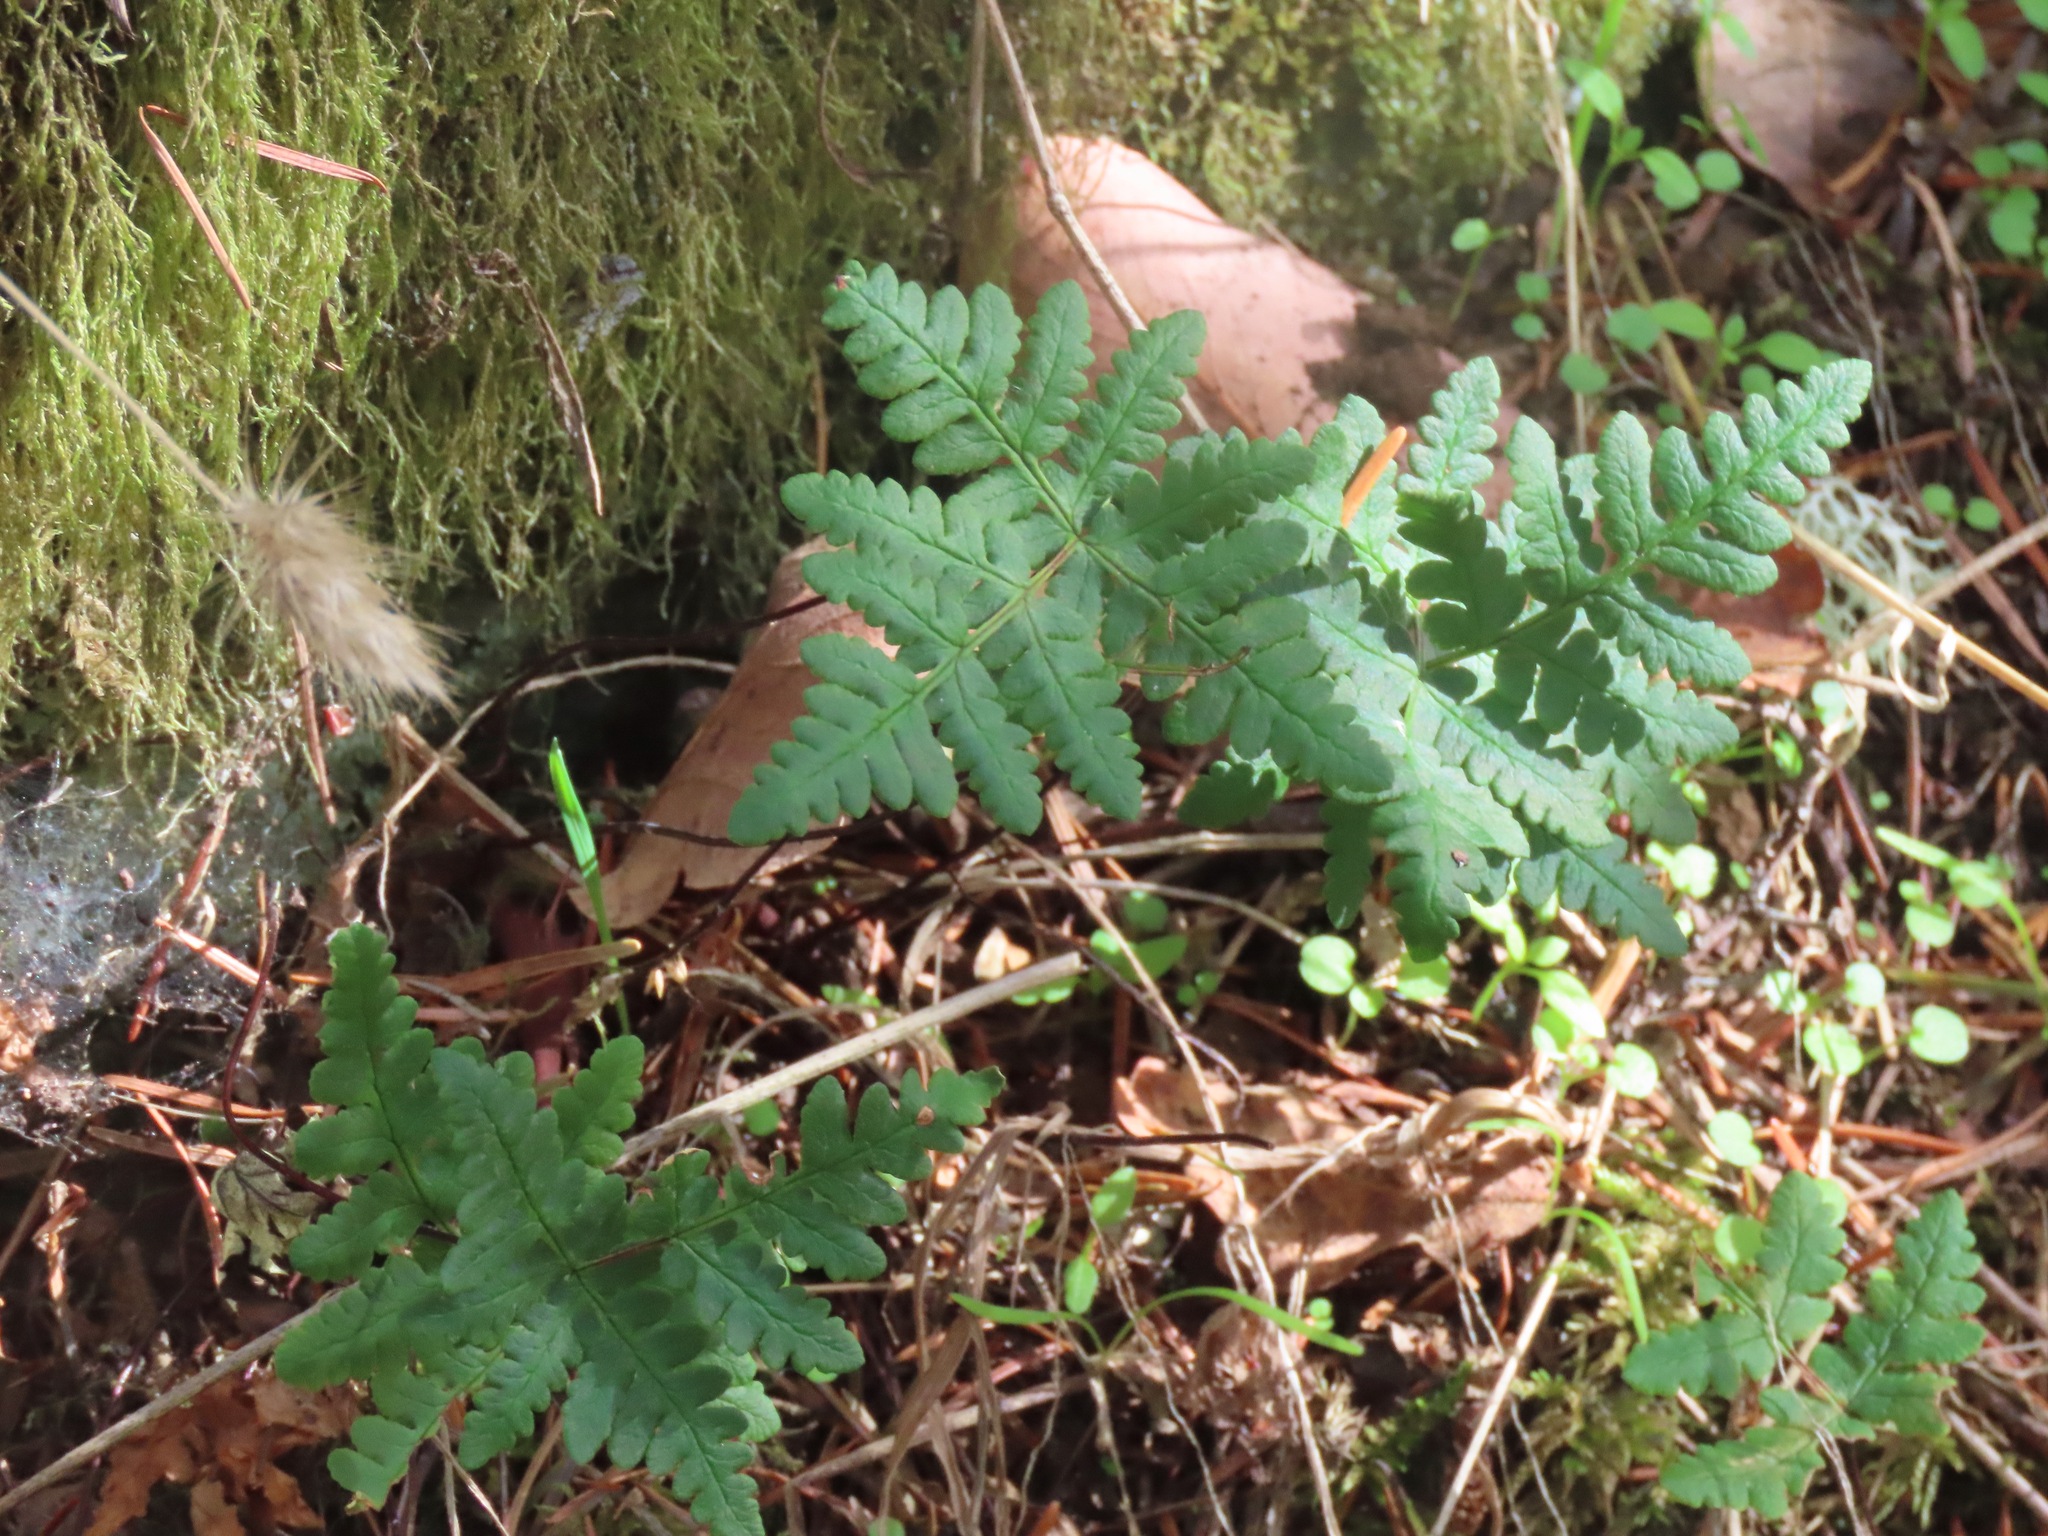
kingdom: Plantae
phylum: Tracheophyta
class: Polypodiopsida
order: Polypodiales
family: Pteridaceae
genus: Pentagramma
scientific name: Pentagramma triangularis
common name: Gold fern
